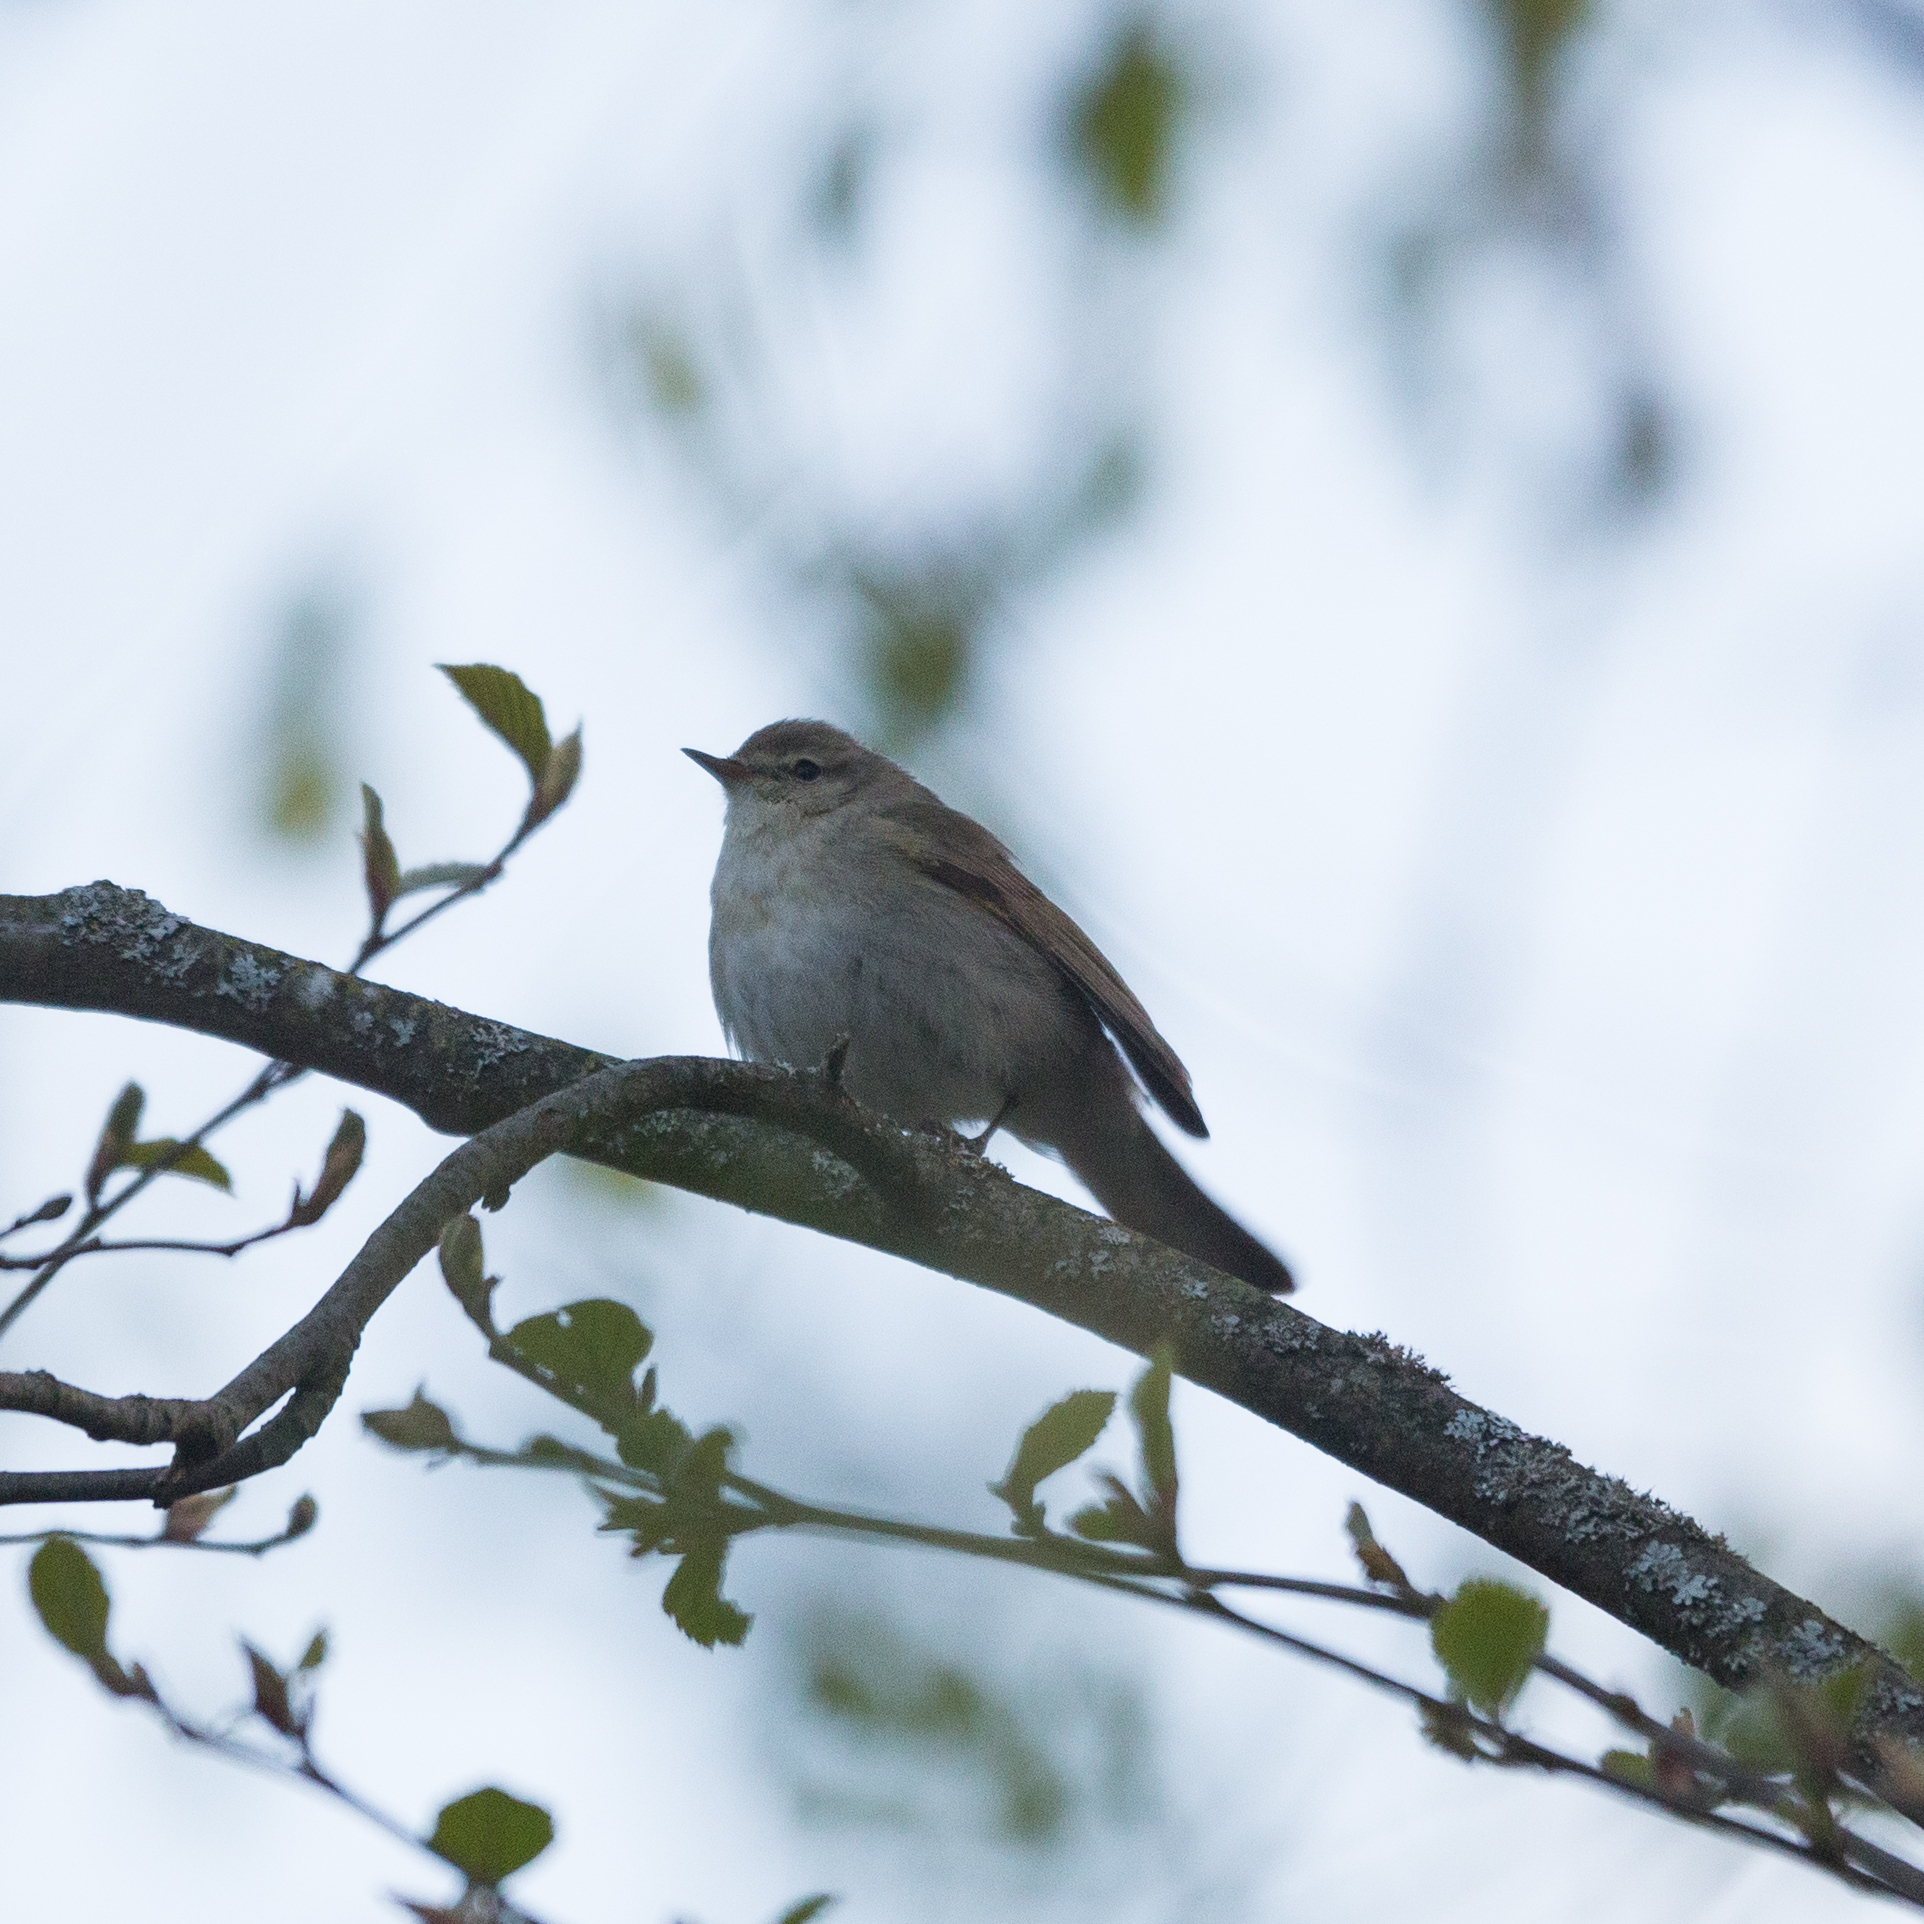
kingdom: Animalia
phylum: Chordata
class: Aves
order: Passeriformes
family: Phylloscopidae
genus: Phylloscopus
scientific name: Phylloscopus collybita
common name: Common chiffchaff
